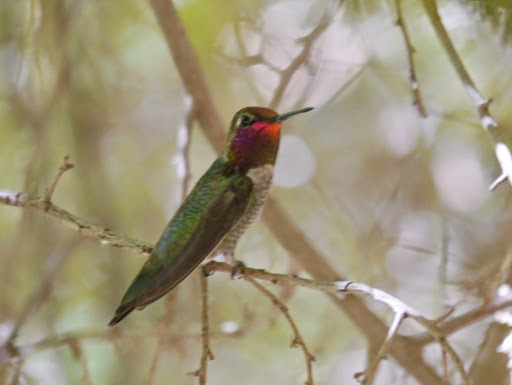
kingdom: Animalia
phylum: Chordata
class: Aves
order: Apodiformes
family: Trochilidae
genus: Calypte
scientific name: Calypte anna
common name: Anna's hummingbird
